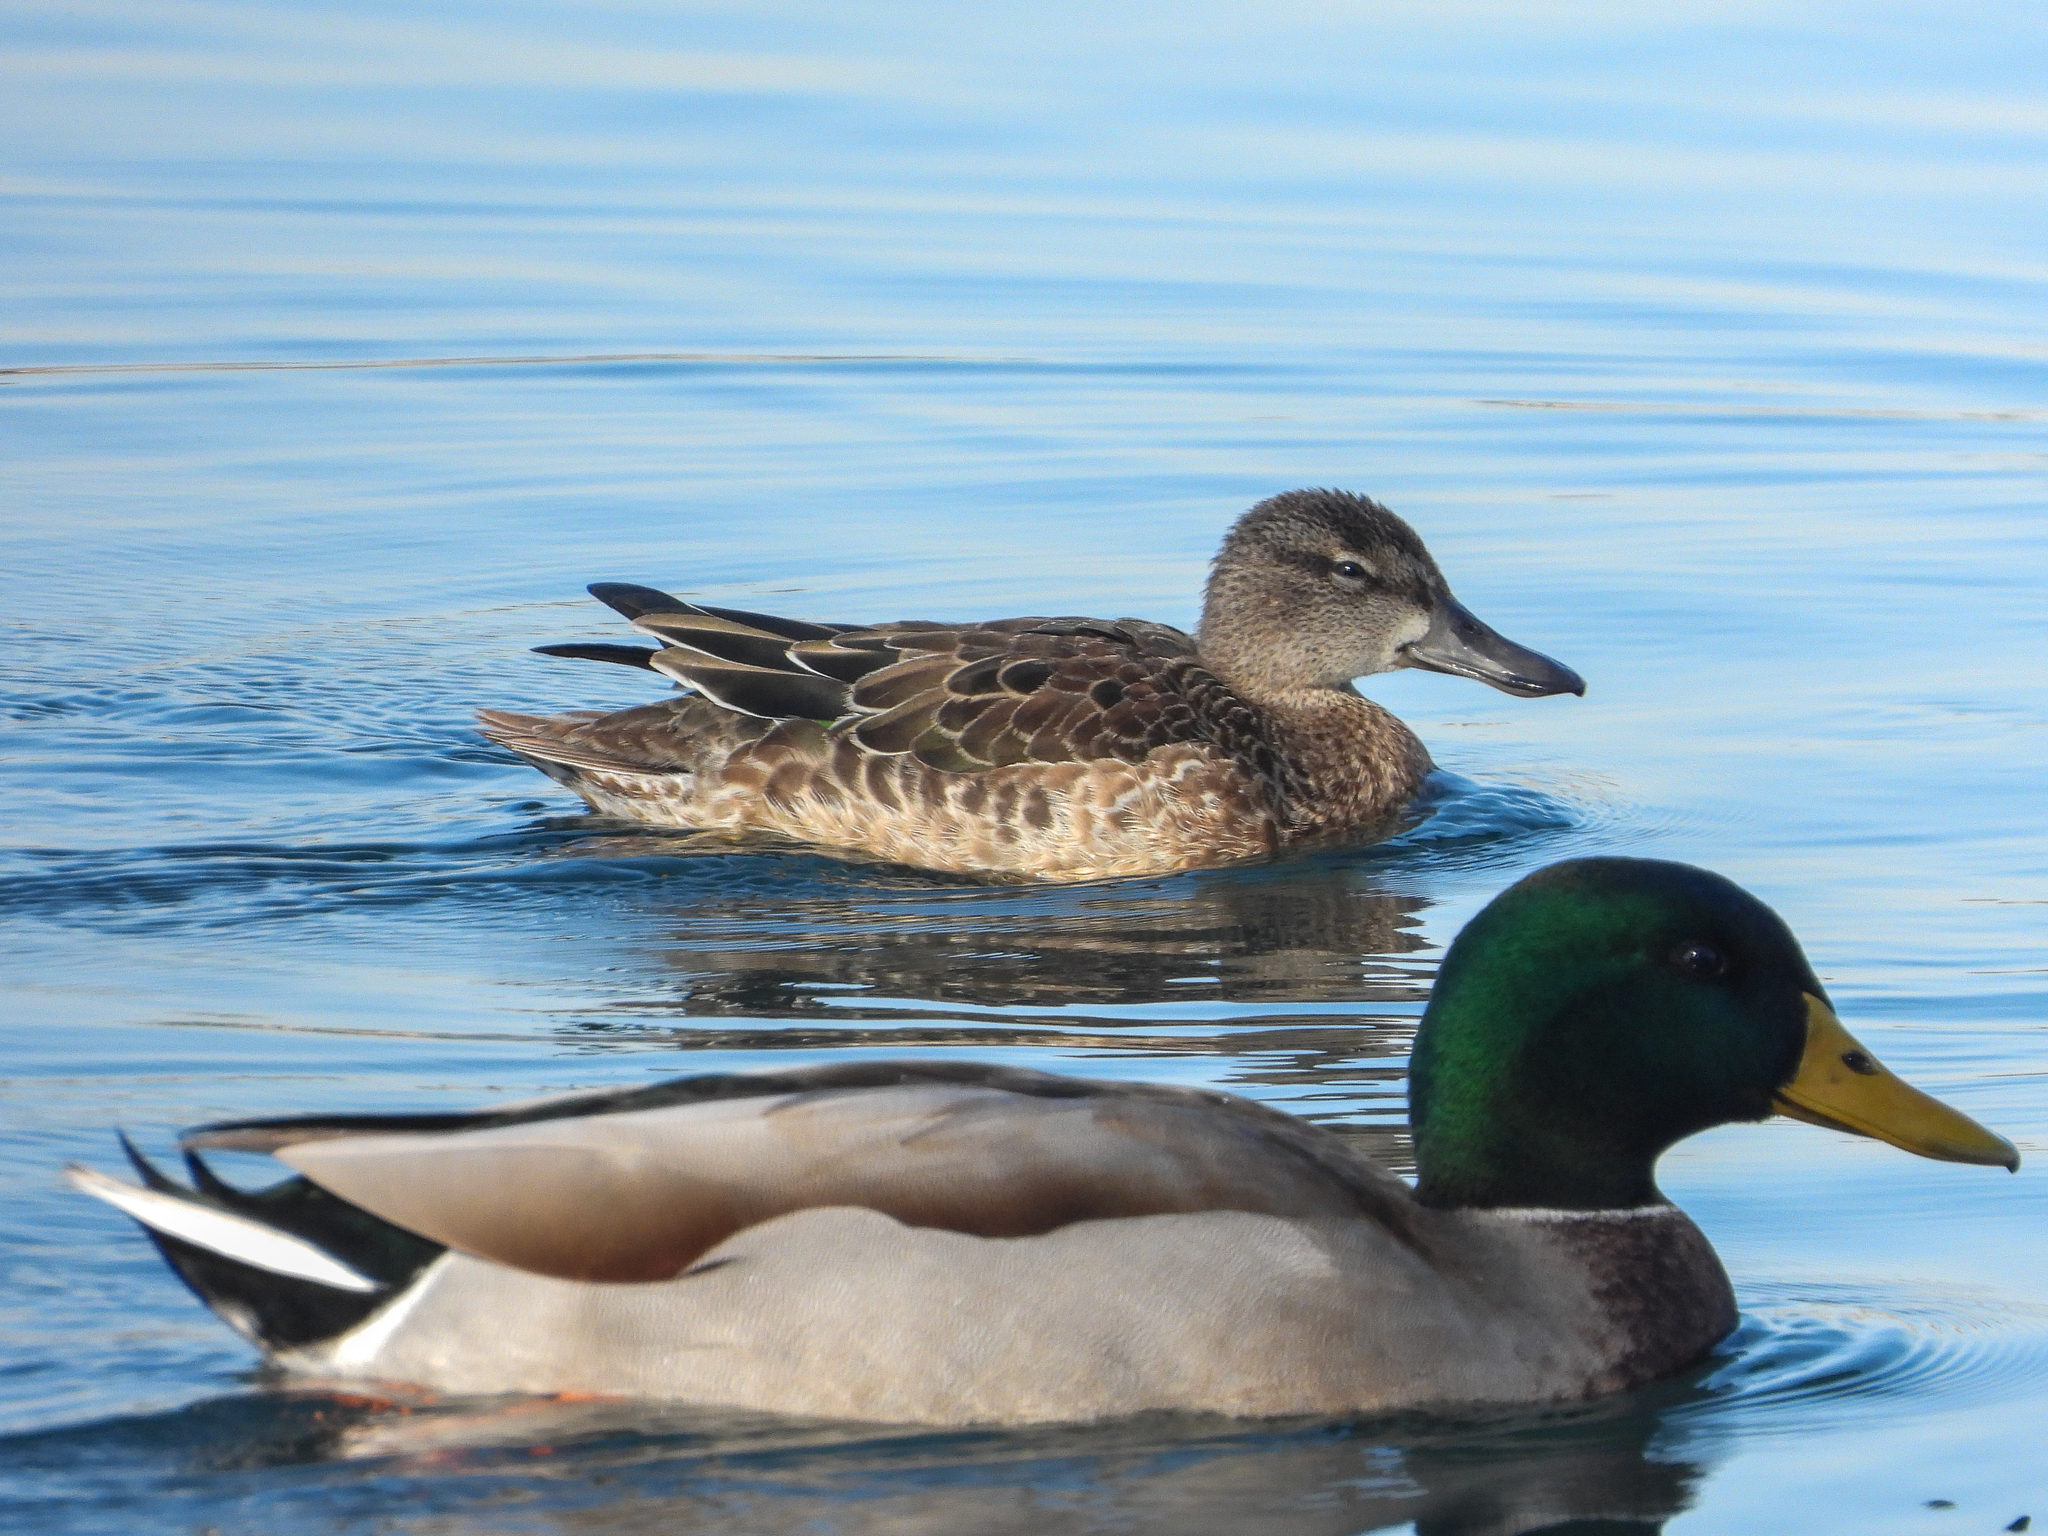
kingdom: Animalia
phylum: Chordata
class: Aves
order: Anseriformes
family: Anatidae
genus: Spatula
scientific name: Spatula discors
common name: Blue-winged teal
